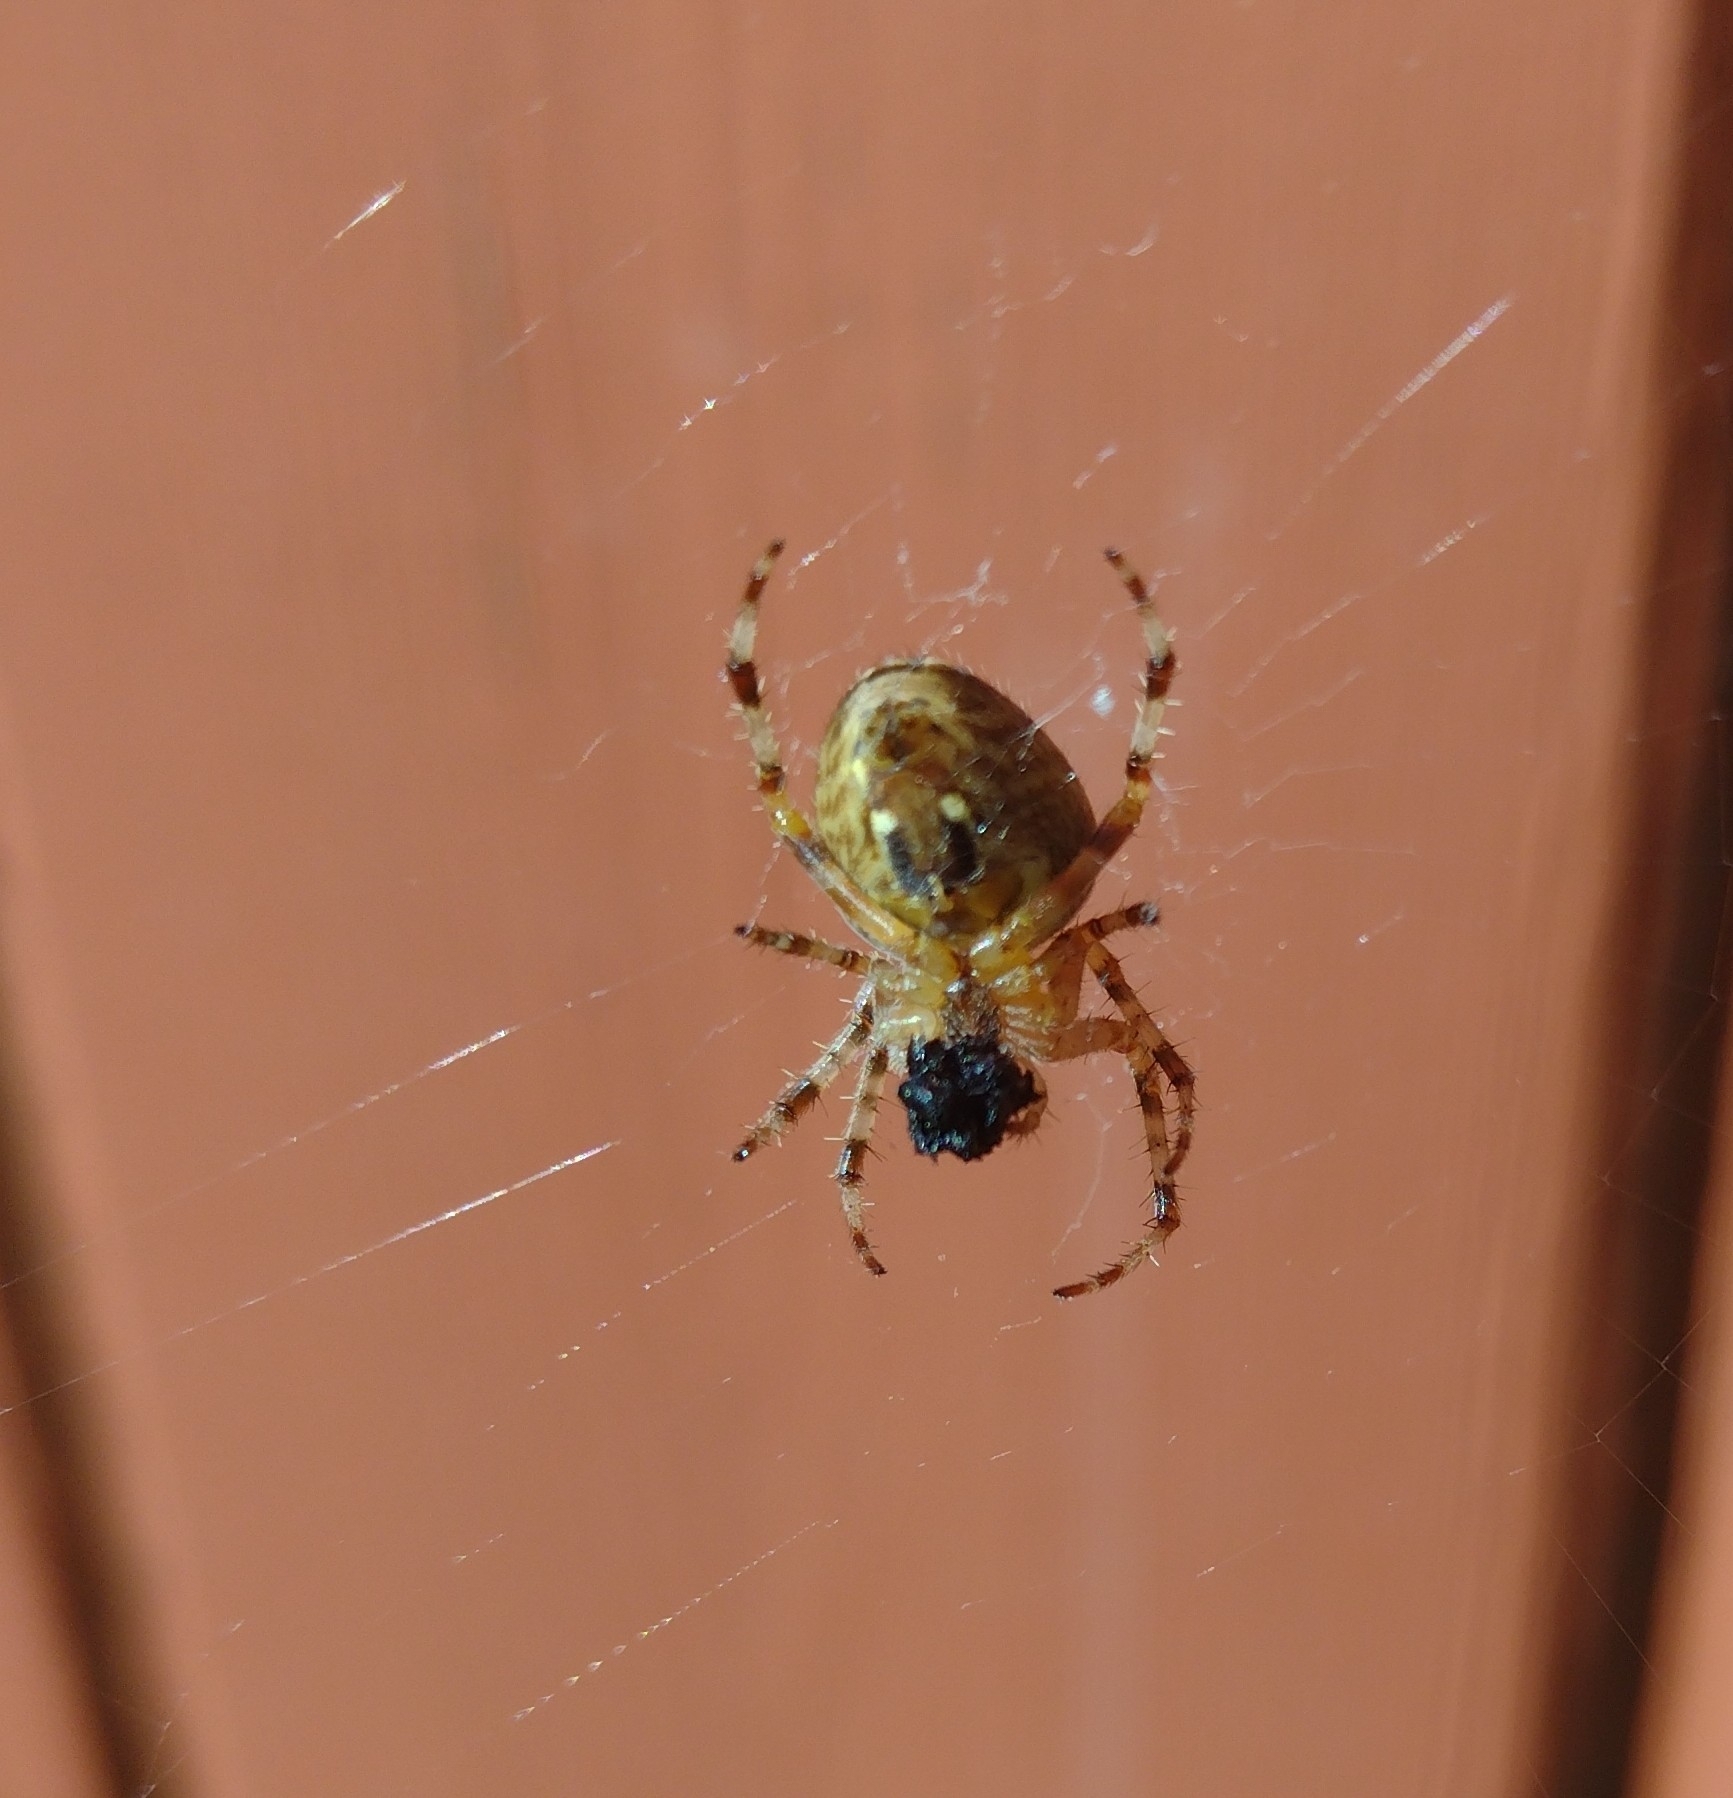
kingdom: Animalia
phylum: Arthropoda
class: Arachnida
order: Araneae
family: Araneidae
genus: Araneus
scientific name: Araneus diadematus
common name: Cross orbweaver
